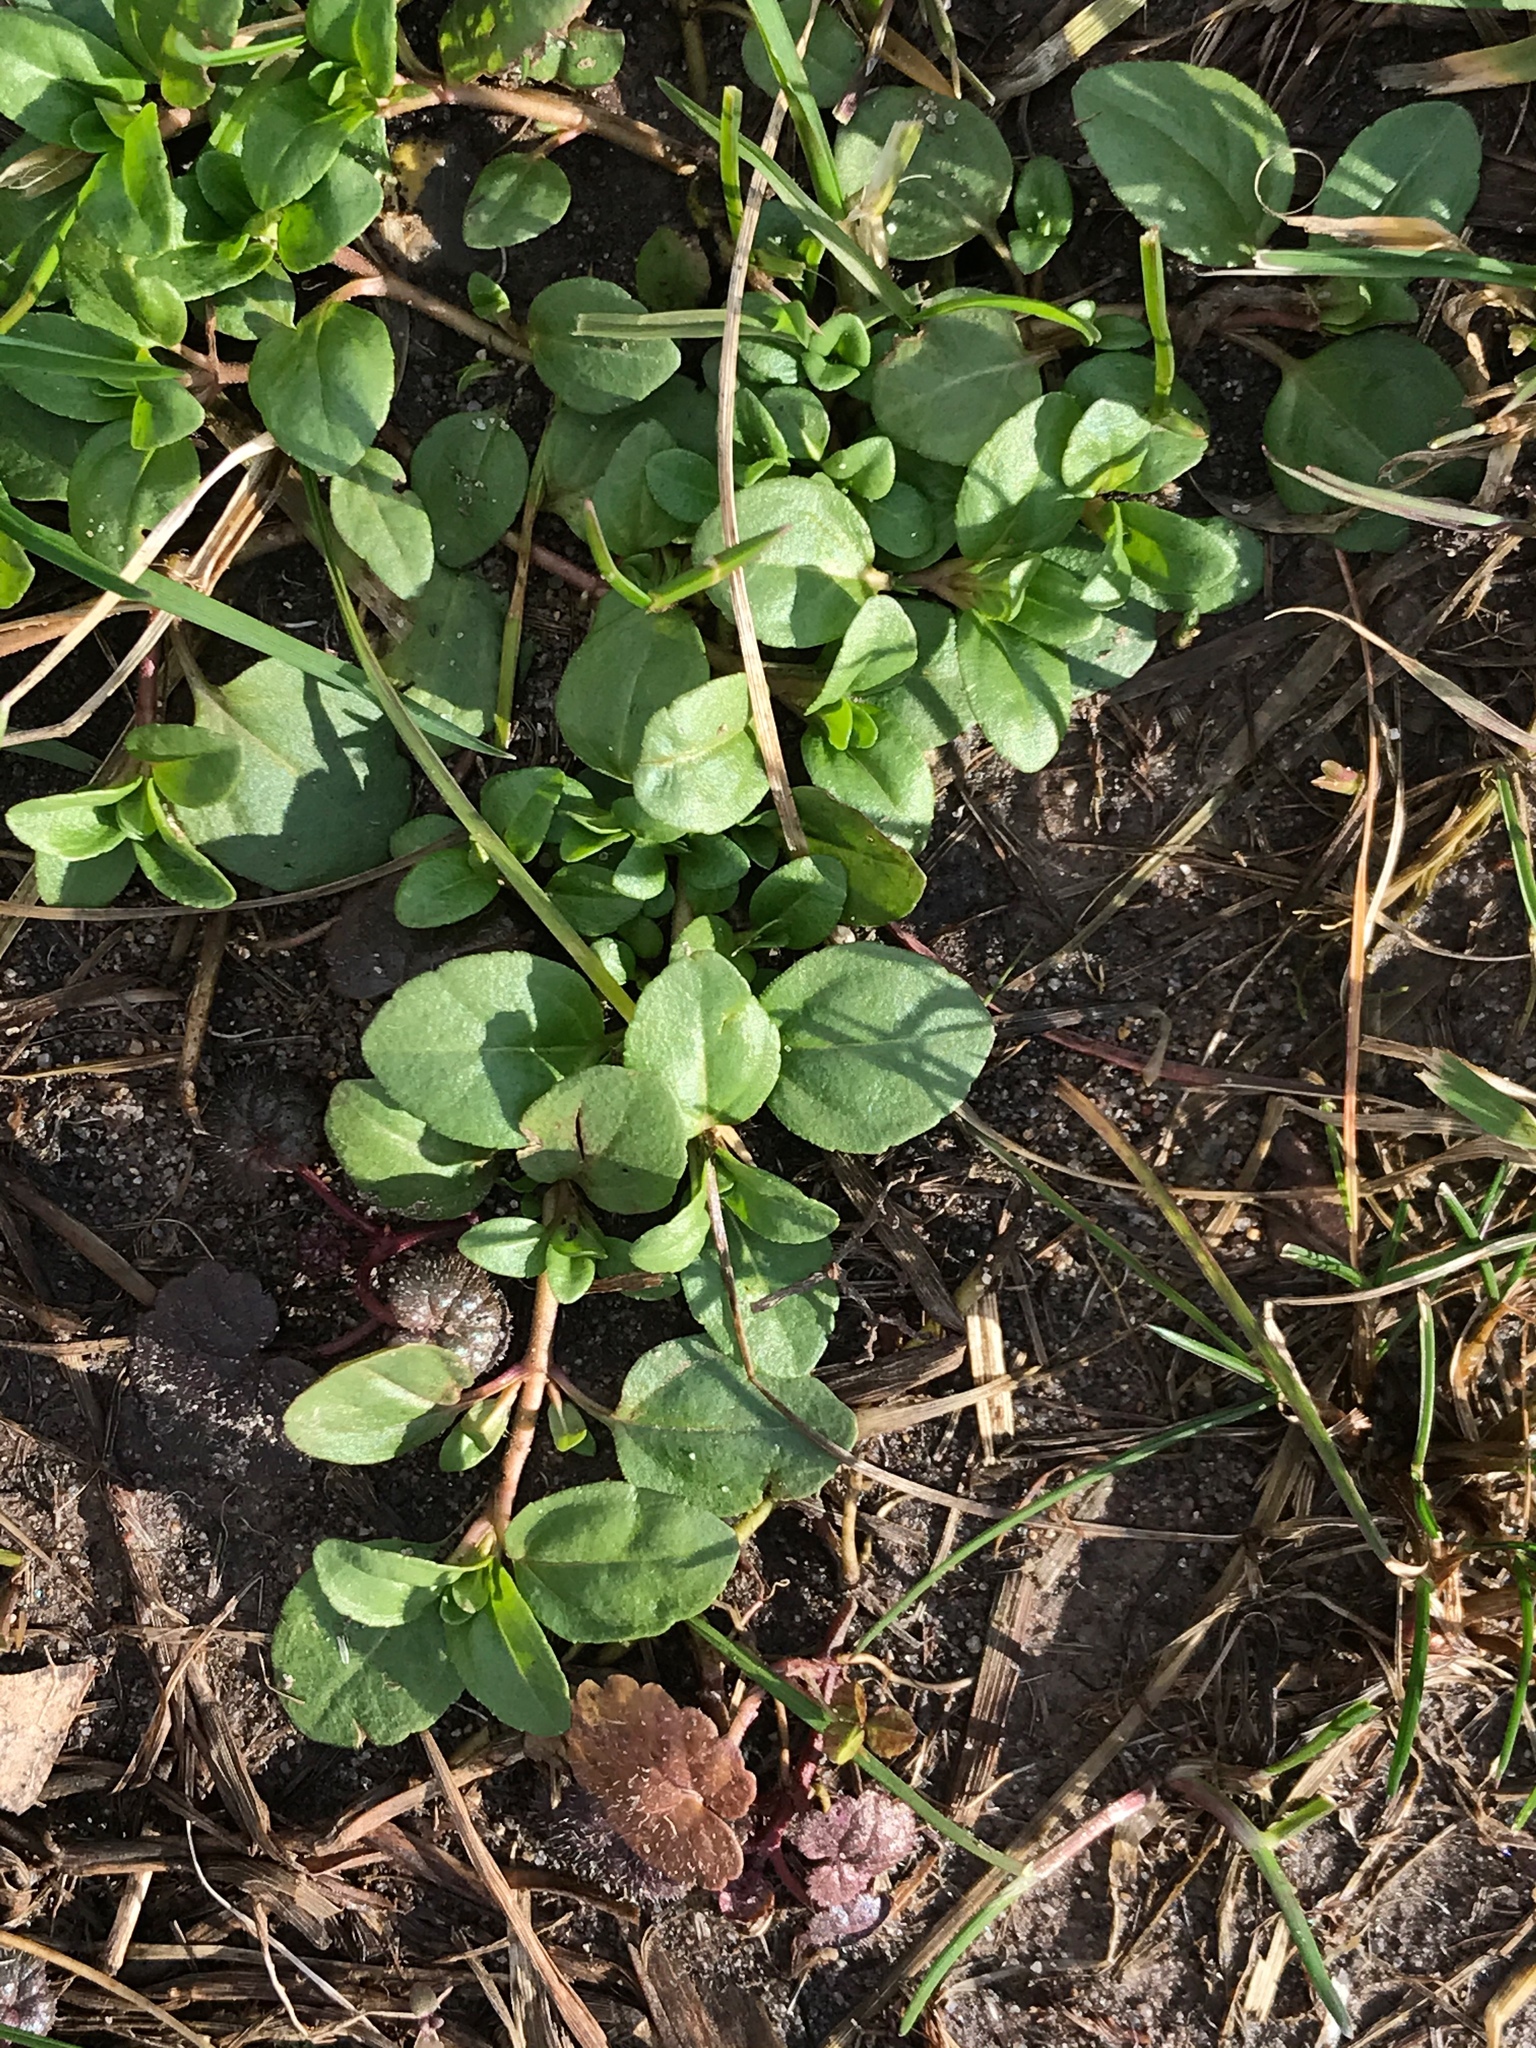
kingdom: Plantae
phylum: Tracheophyta
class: Magnoliopsida
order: Lamiales
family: Plantaginaceae
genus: Veronica
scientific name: Veronica serpyllifolia
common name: Thyme-leaved speedwell
